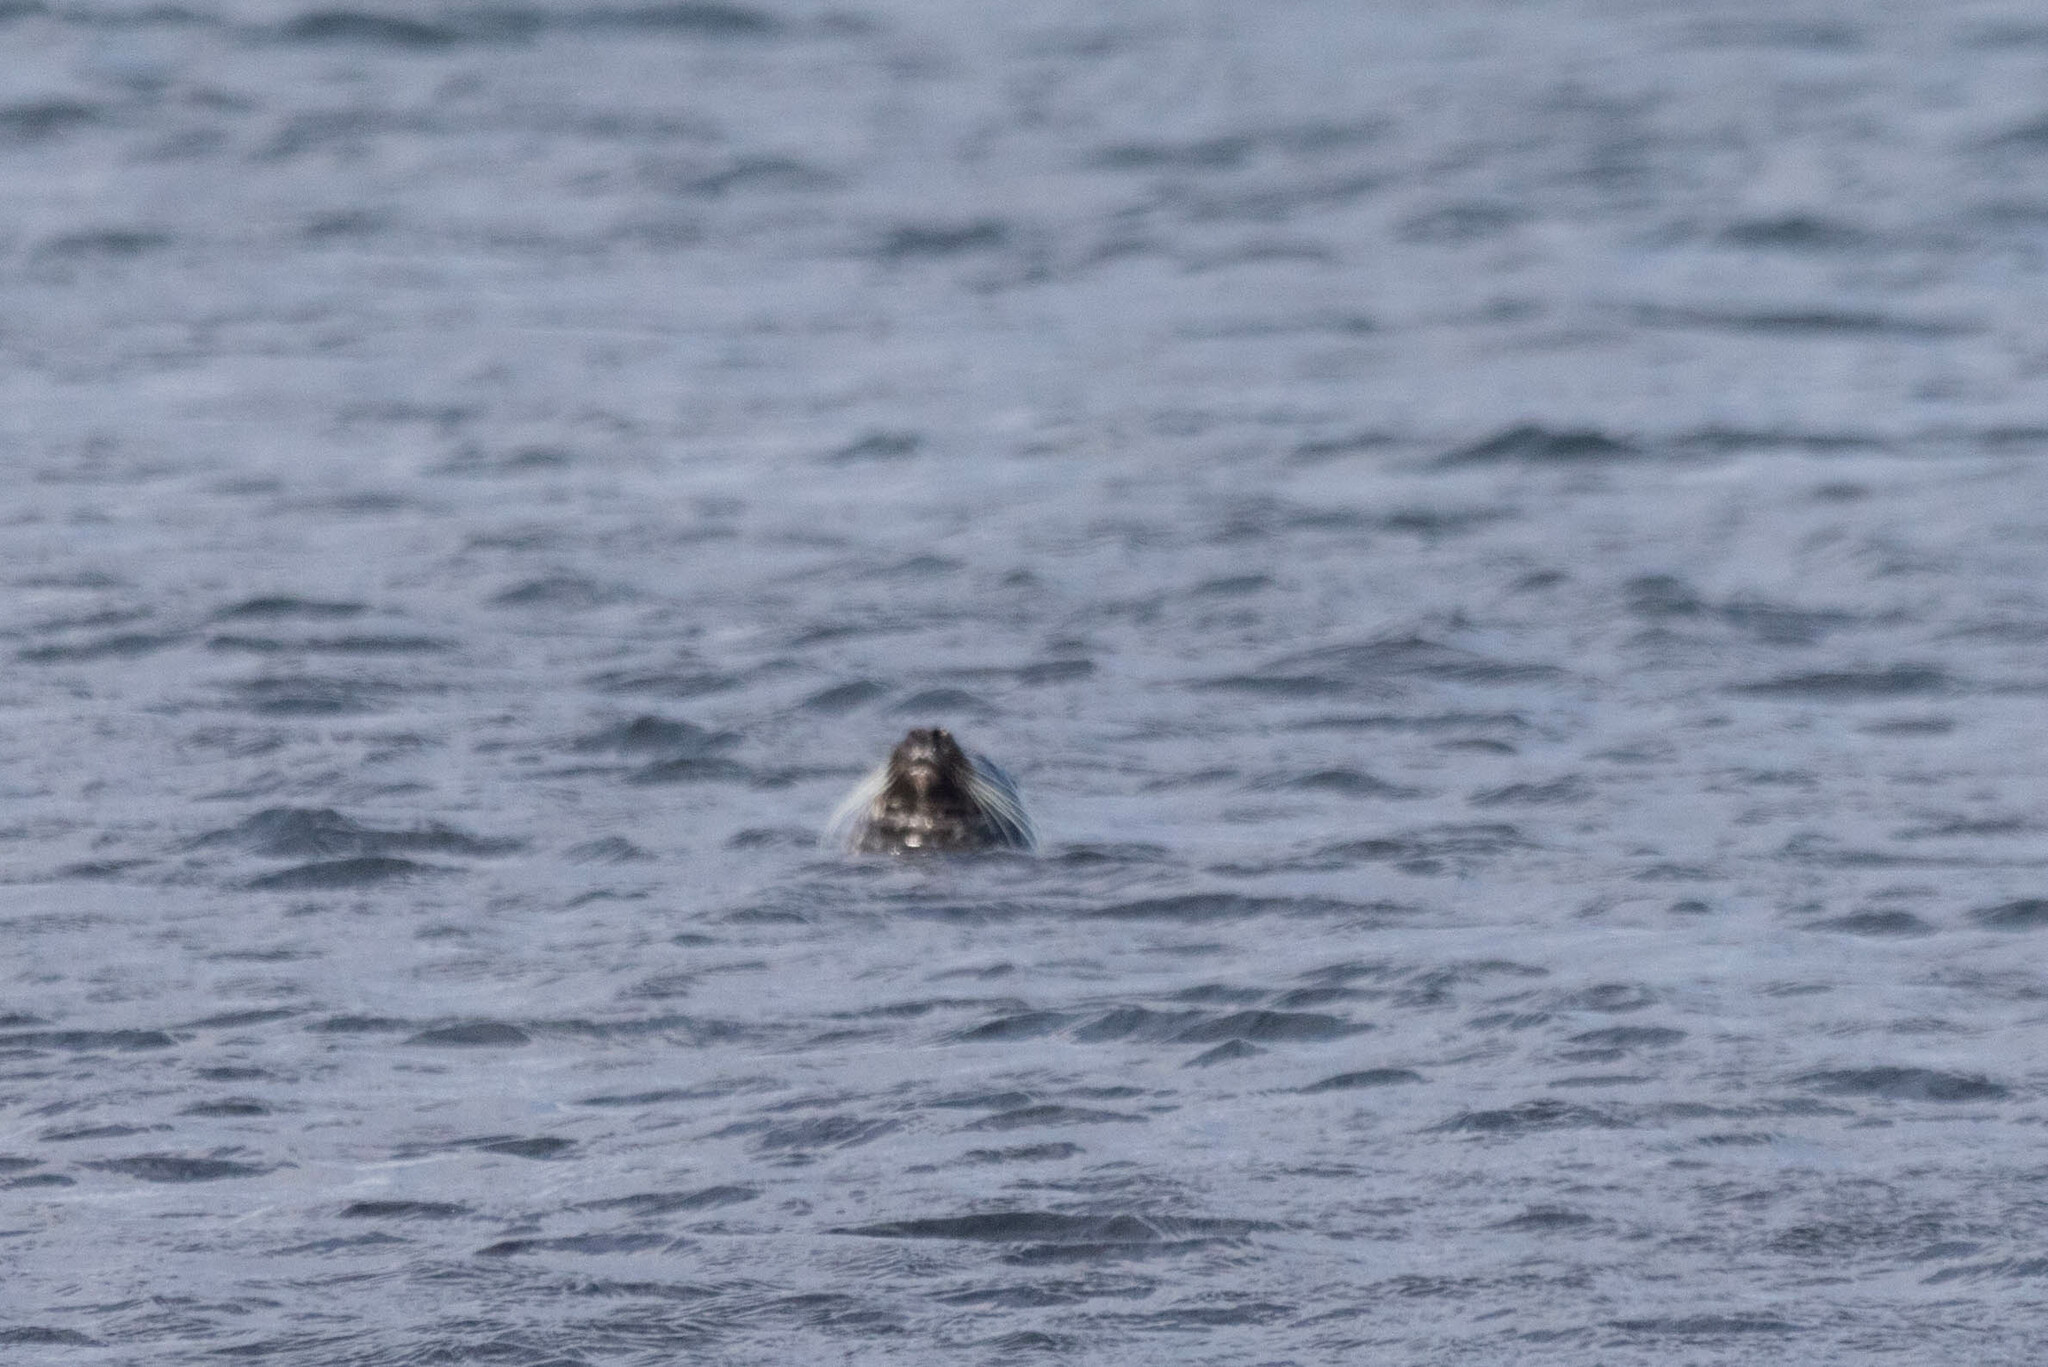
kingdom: Animalia
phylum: Chordata
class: Mammalia
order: Carnivora
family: Phocidae
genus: Phoca
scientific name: Phoca vitulina
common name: Harbor seal
